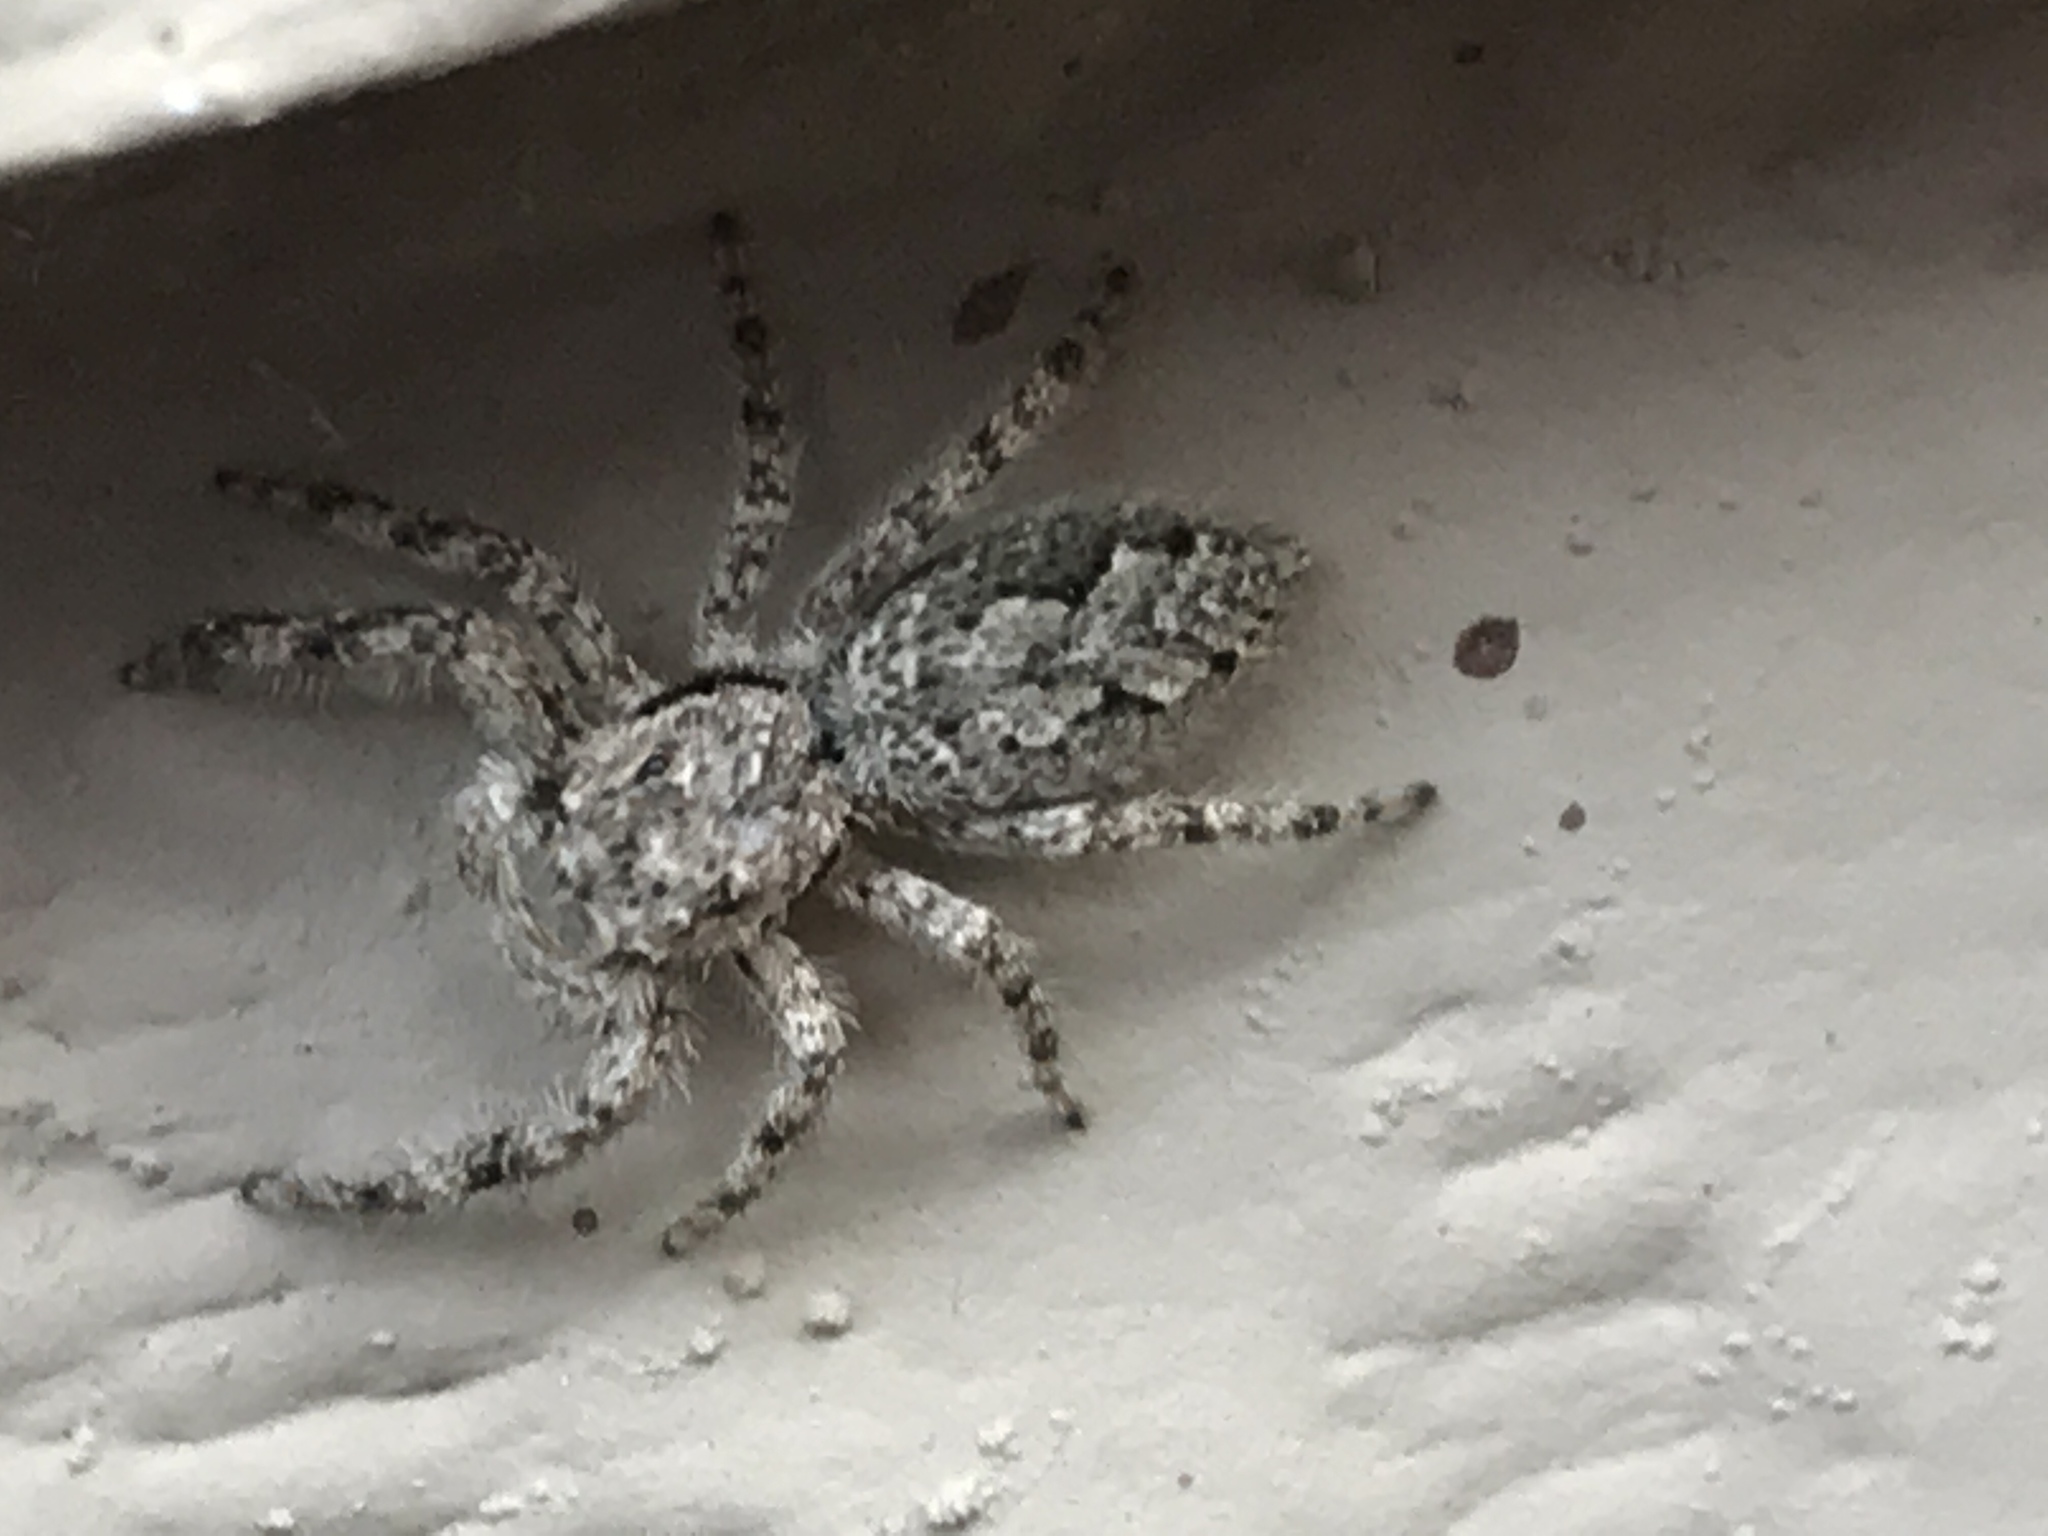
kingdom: Animalia
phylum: Arthropoda
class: Arachnida
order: Araneae
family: Salticidae
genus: Platycryptus
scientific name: Platycryptus undatus
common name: Tan jumping spider
